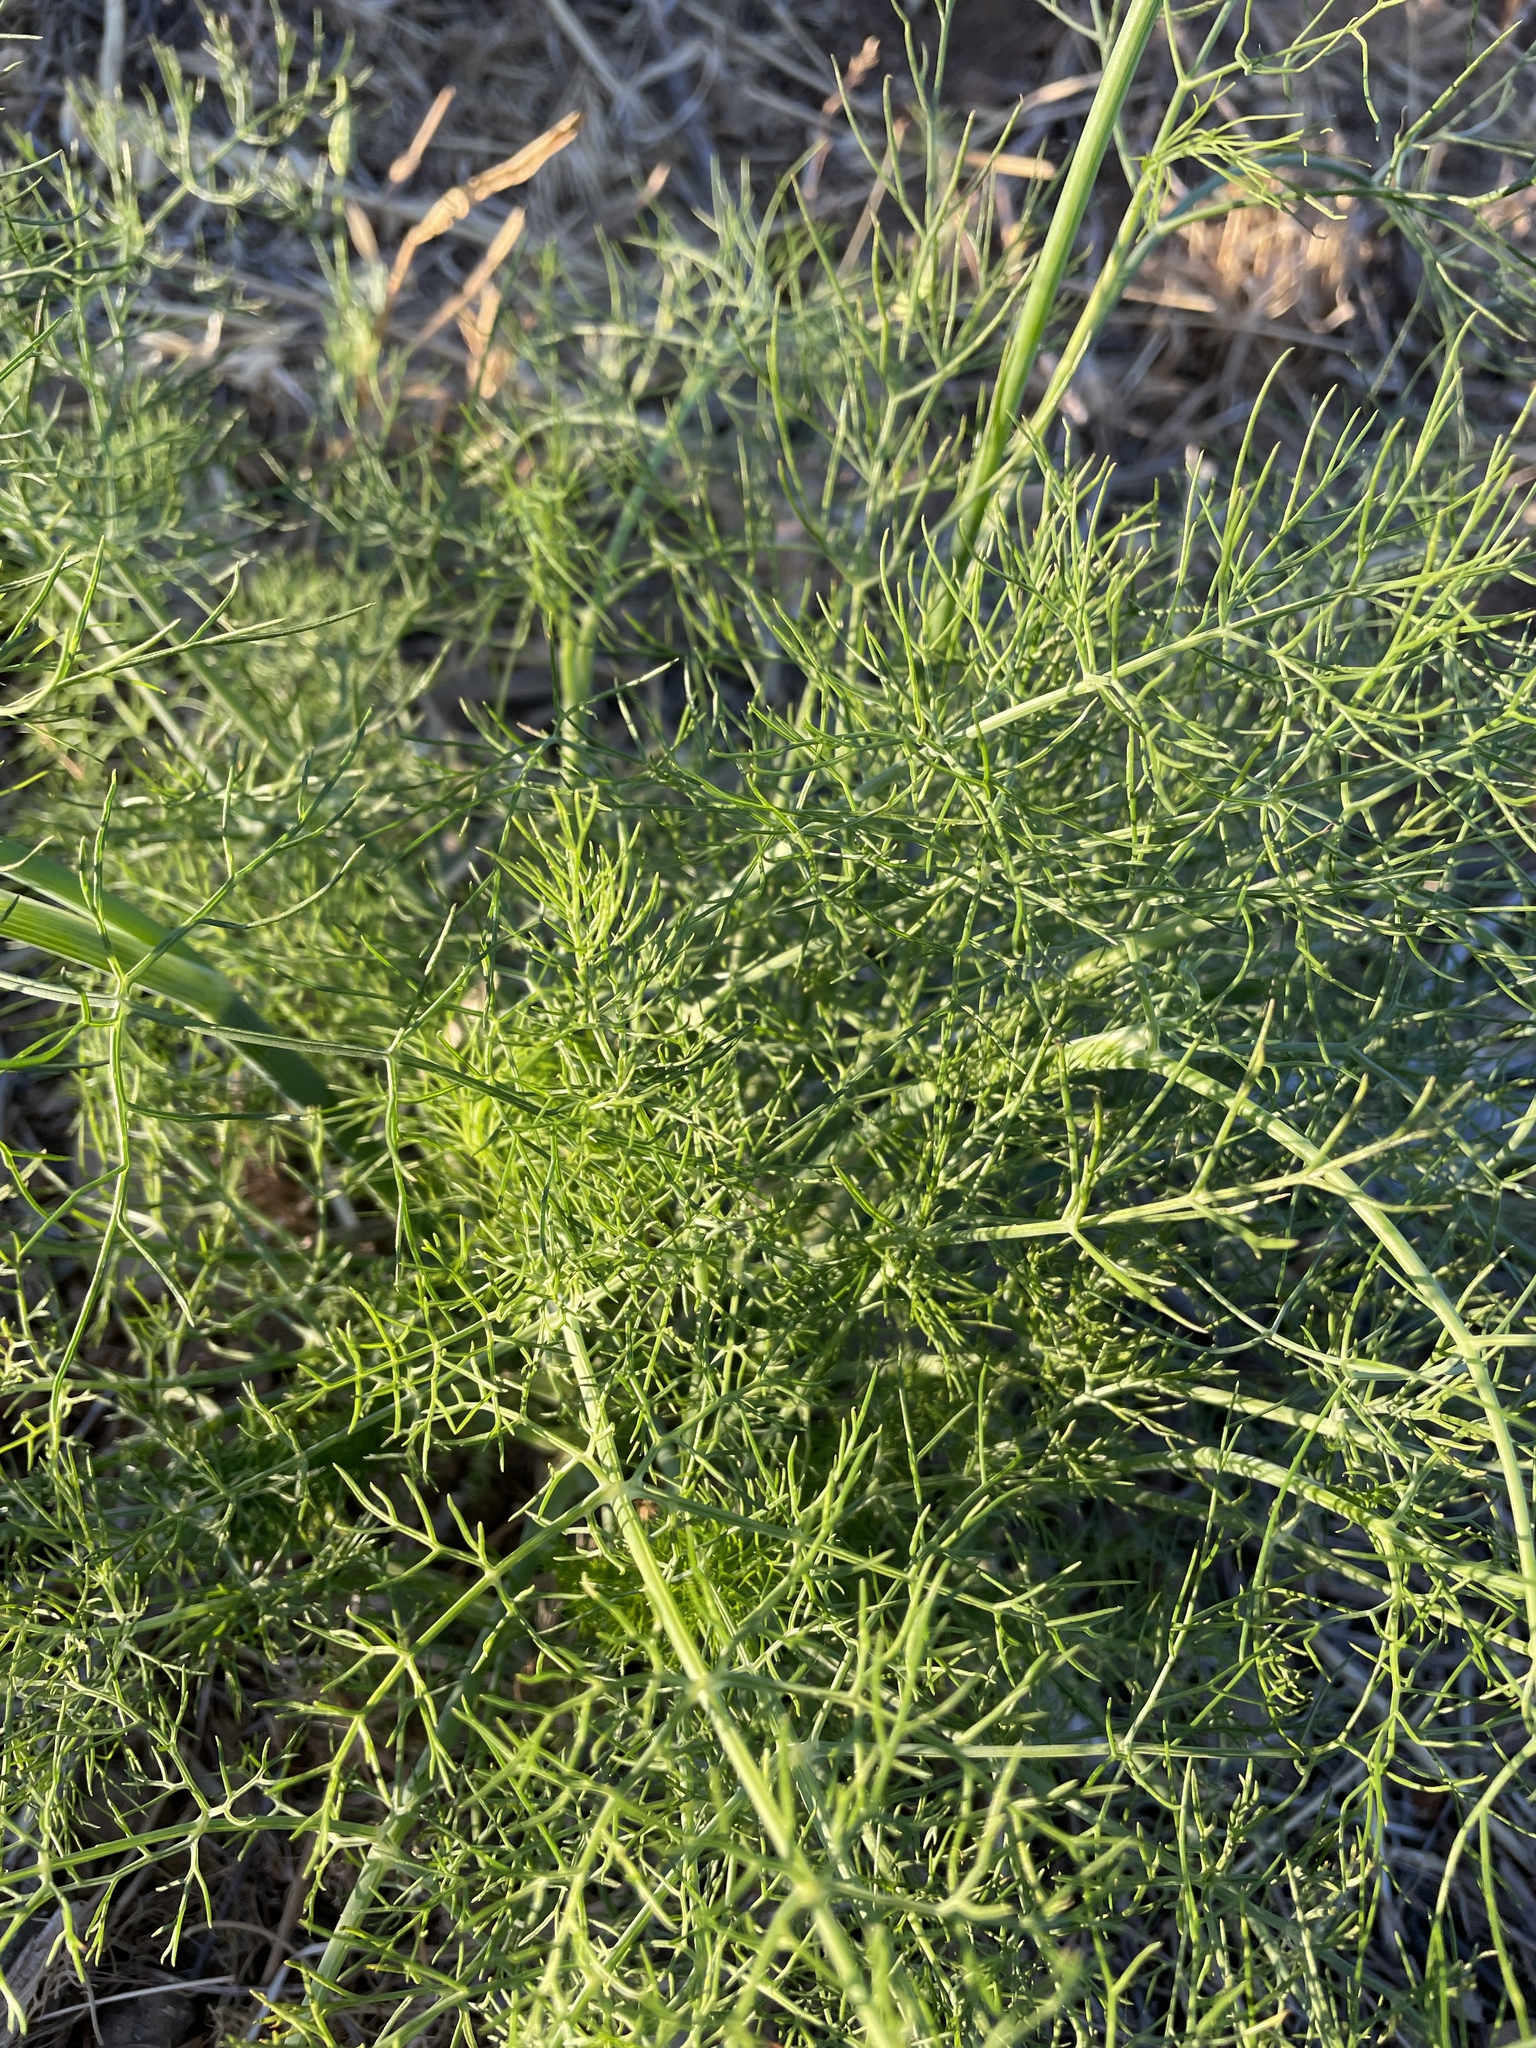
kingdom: Plantae
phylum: Tracheophyta
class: Magnoliopsida
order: Apiales
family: Apiaceae
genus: Foeniculum
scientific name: Foeniculum vulgare
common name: Fennel
